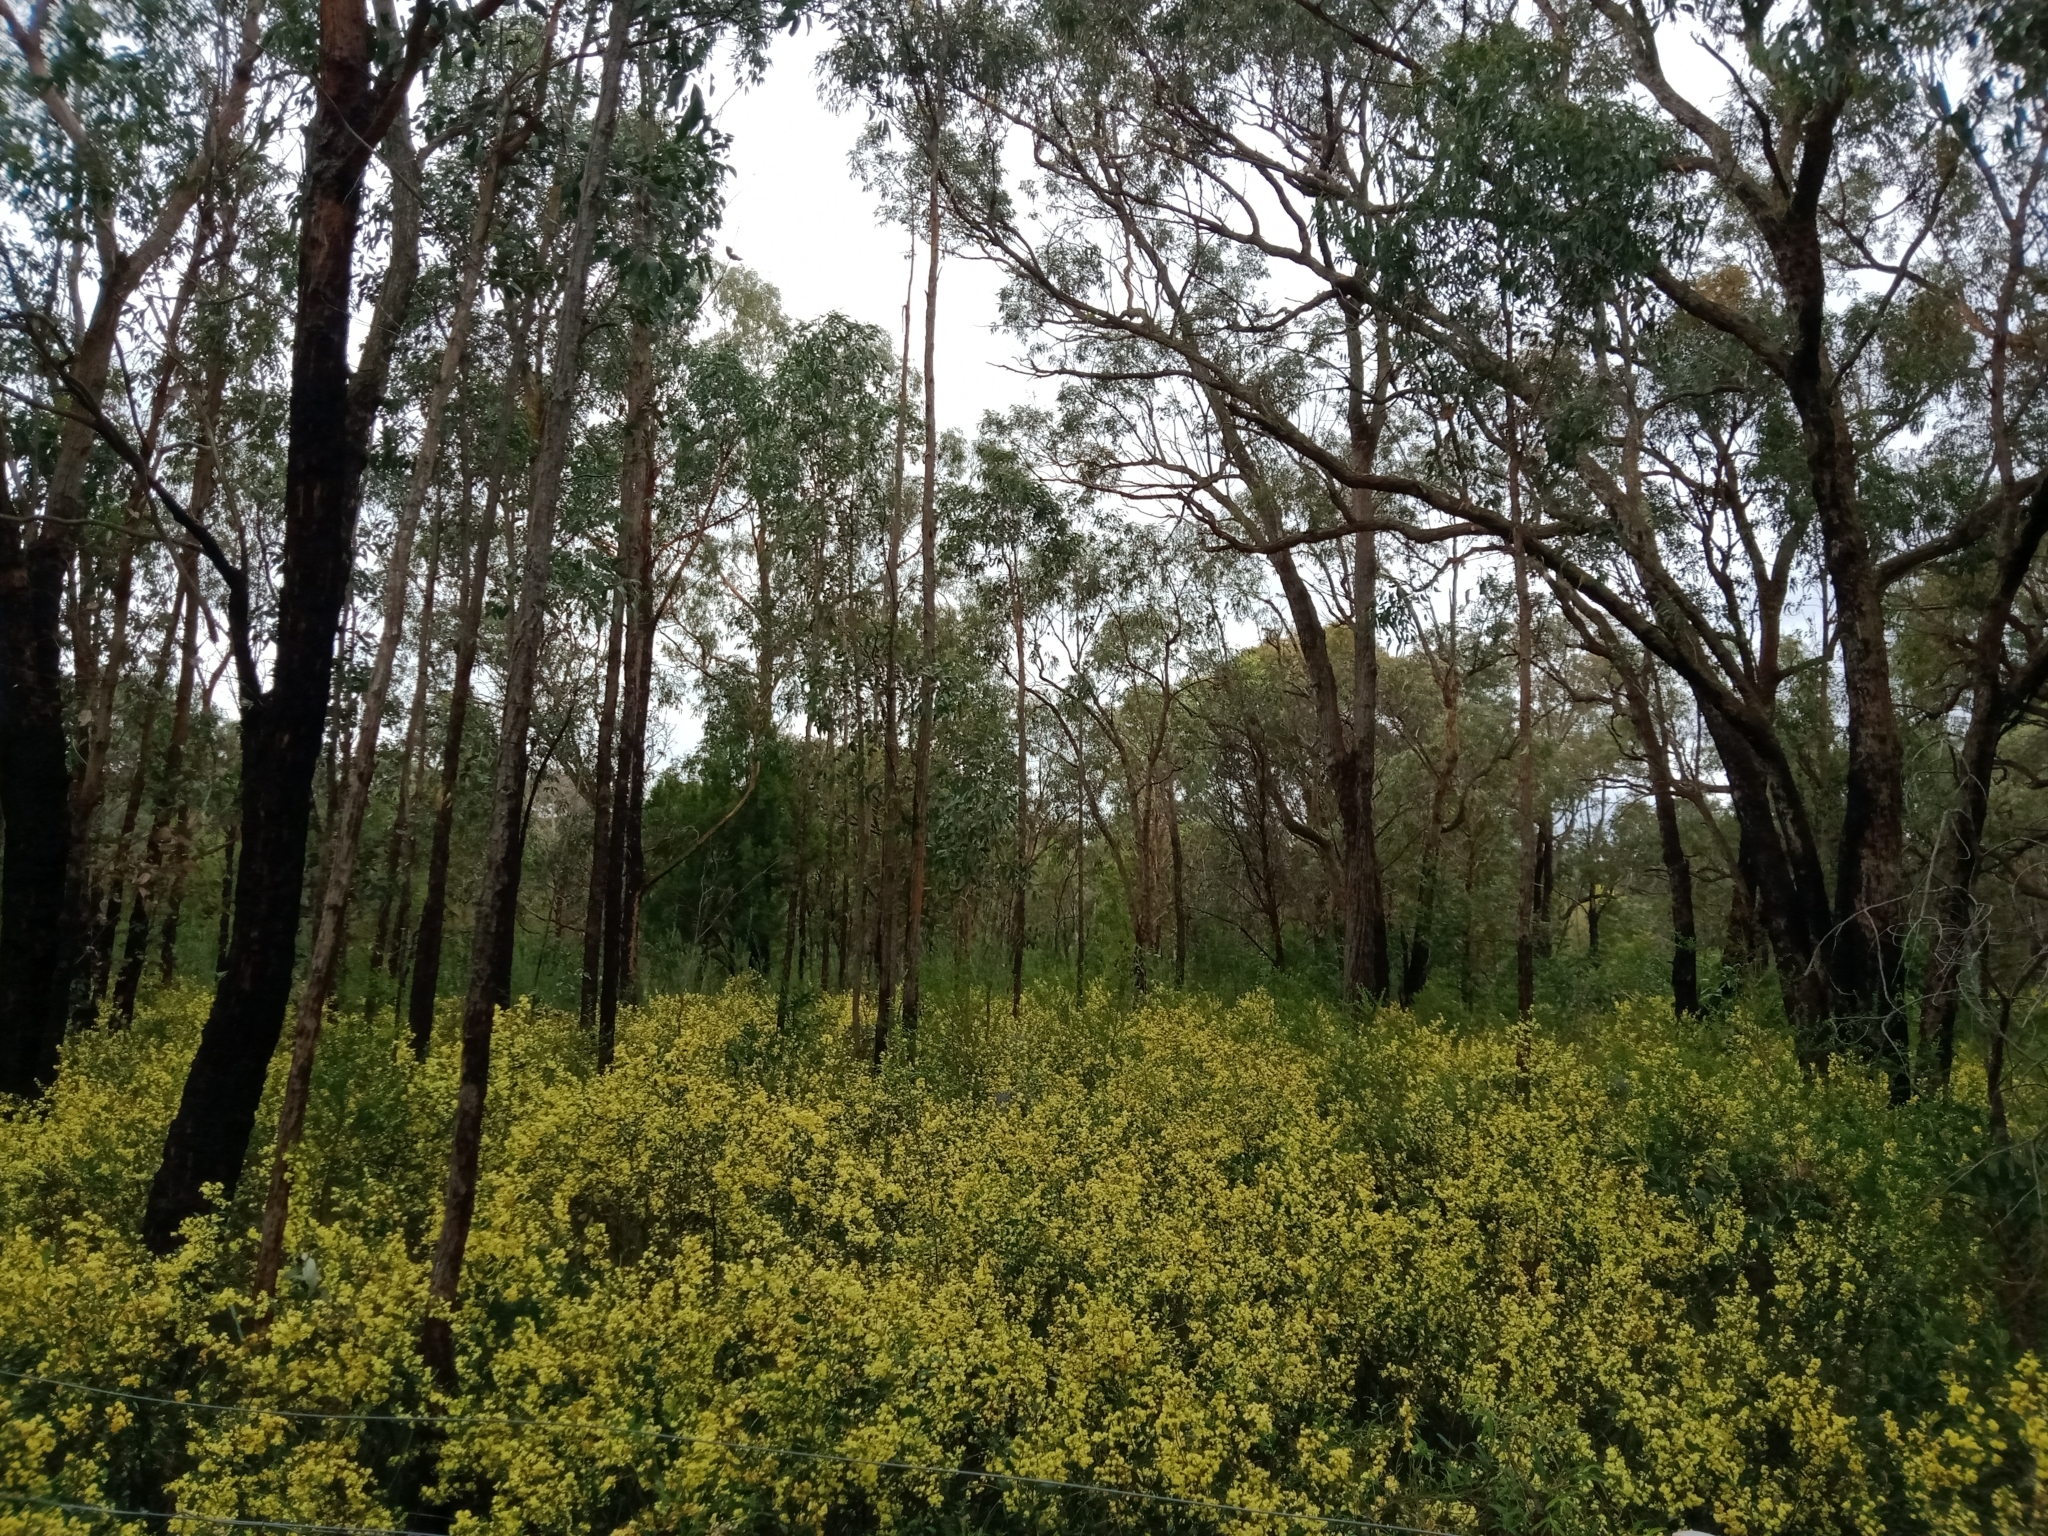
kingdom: Plantae
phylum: Tracheophyta
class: Magnoliopsida
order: Fabales
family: Fabaceae
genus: Acacia
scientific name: Acacia myrtifolia
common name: Myrtle wattle
